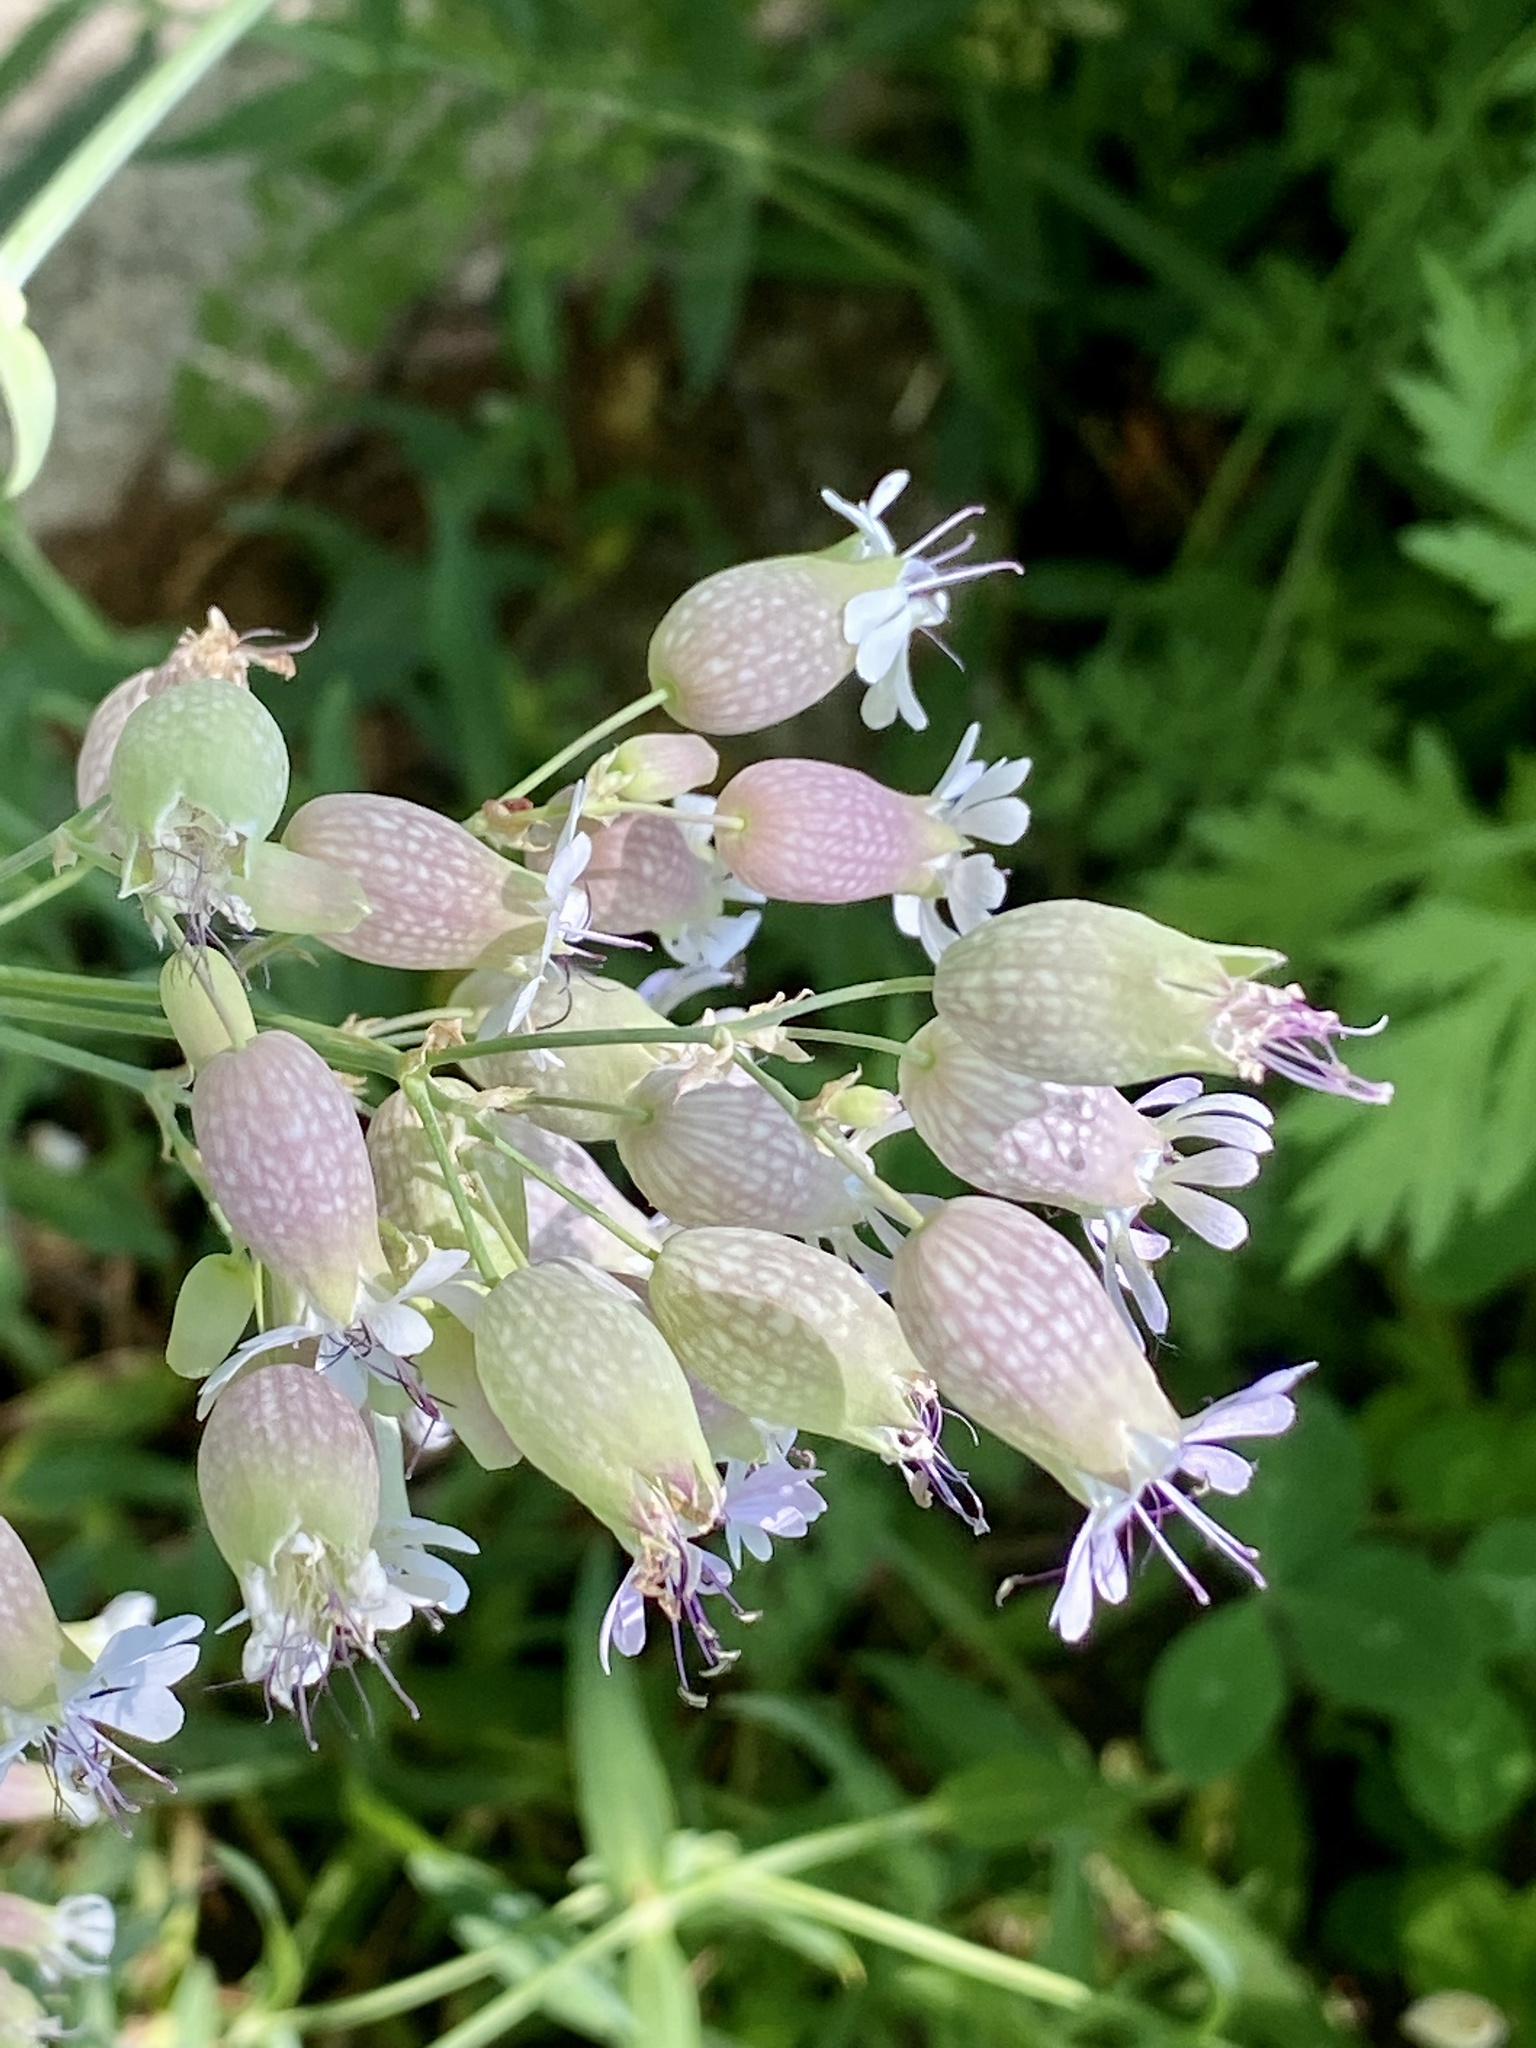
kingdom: Plantae
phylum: Tracheophyta
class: Magnoliopsida
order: Caryophyllales
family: Caryophyllaceae
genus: Silene
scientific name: Silene vulgaris
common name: Bladder campion
